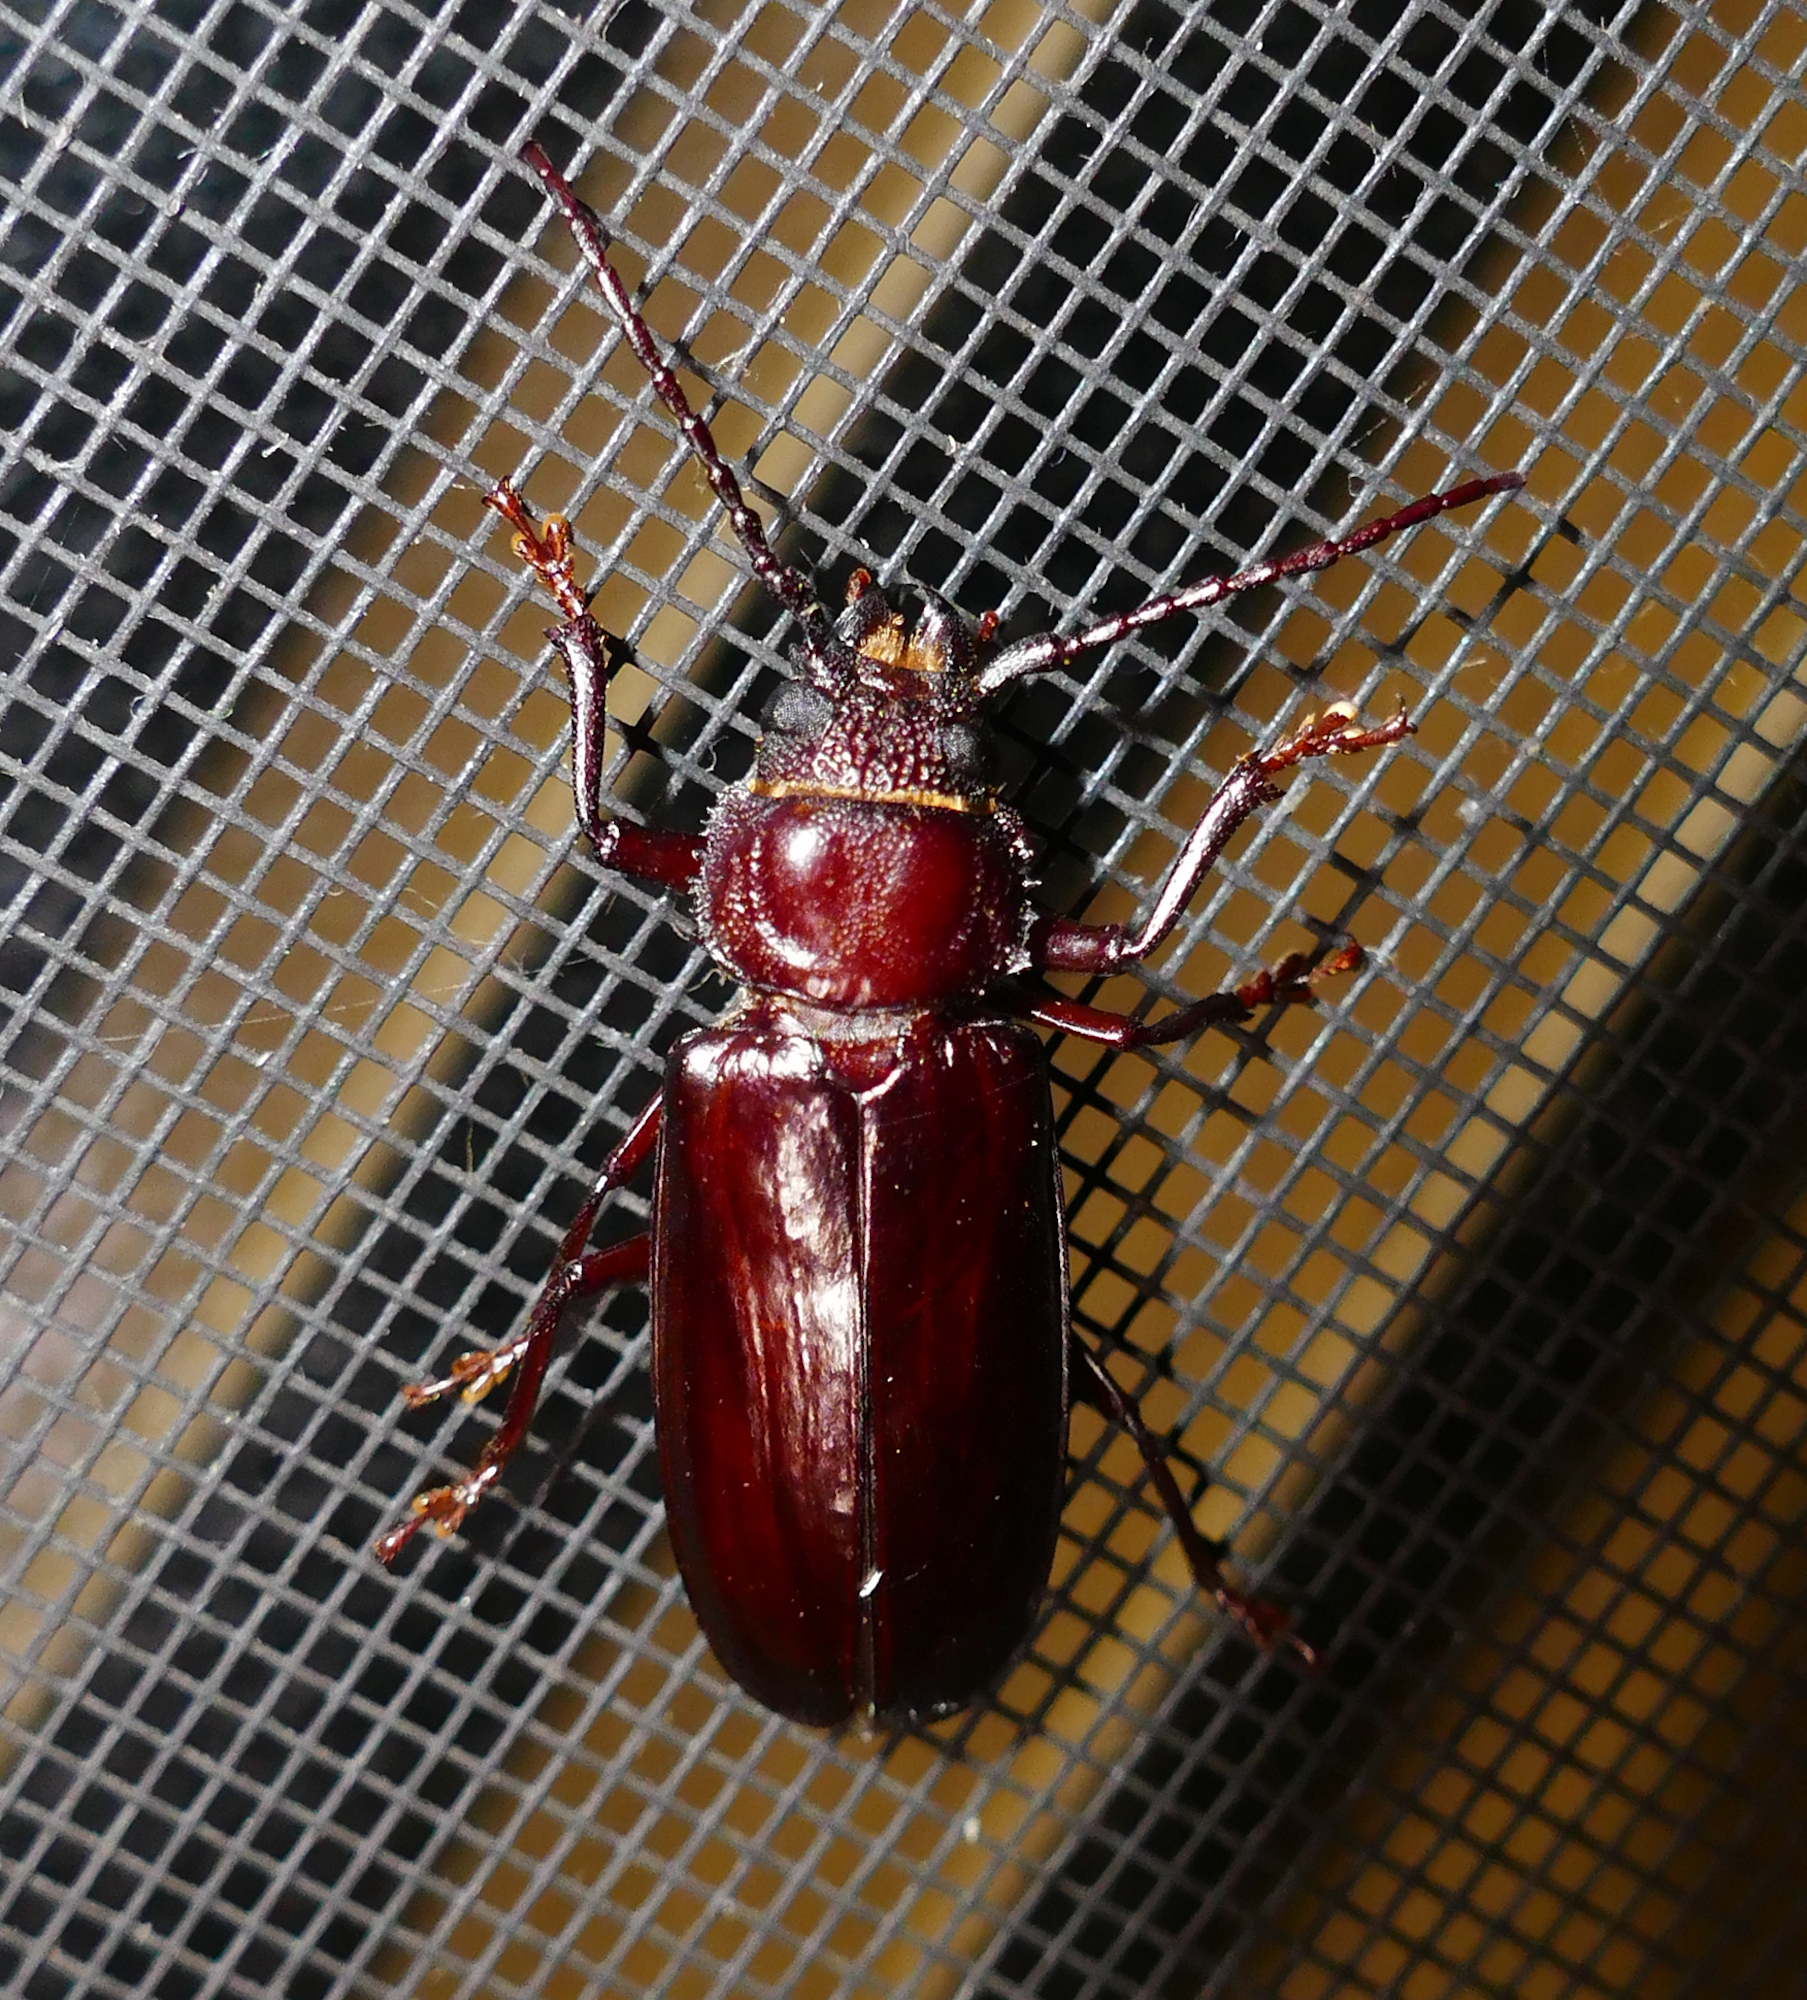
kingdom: Animalia
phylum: Arthropoda
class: Insecta
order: Coleoptera
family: Cerambycidae
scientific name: Cerambycidae
